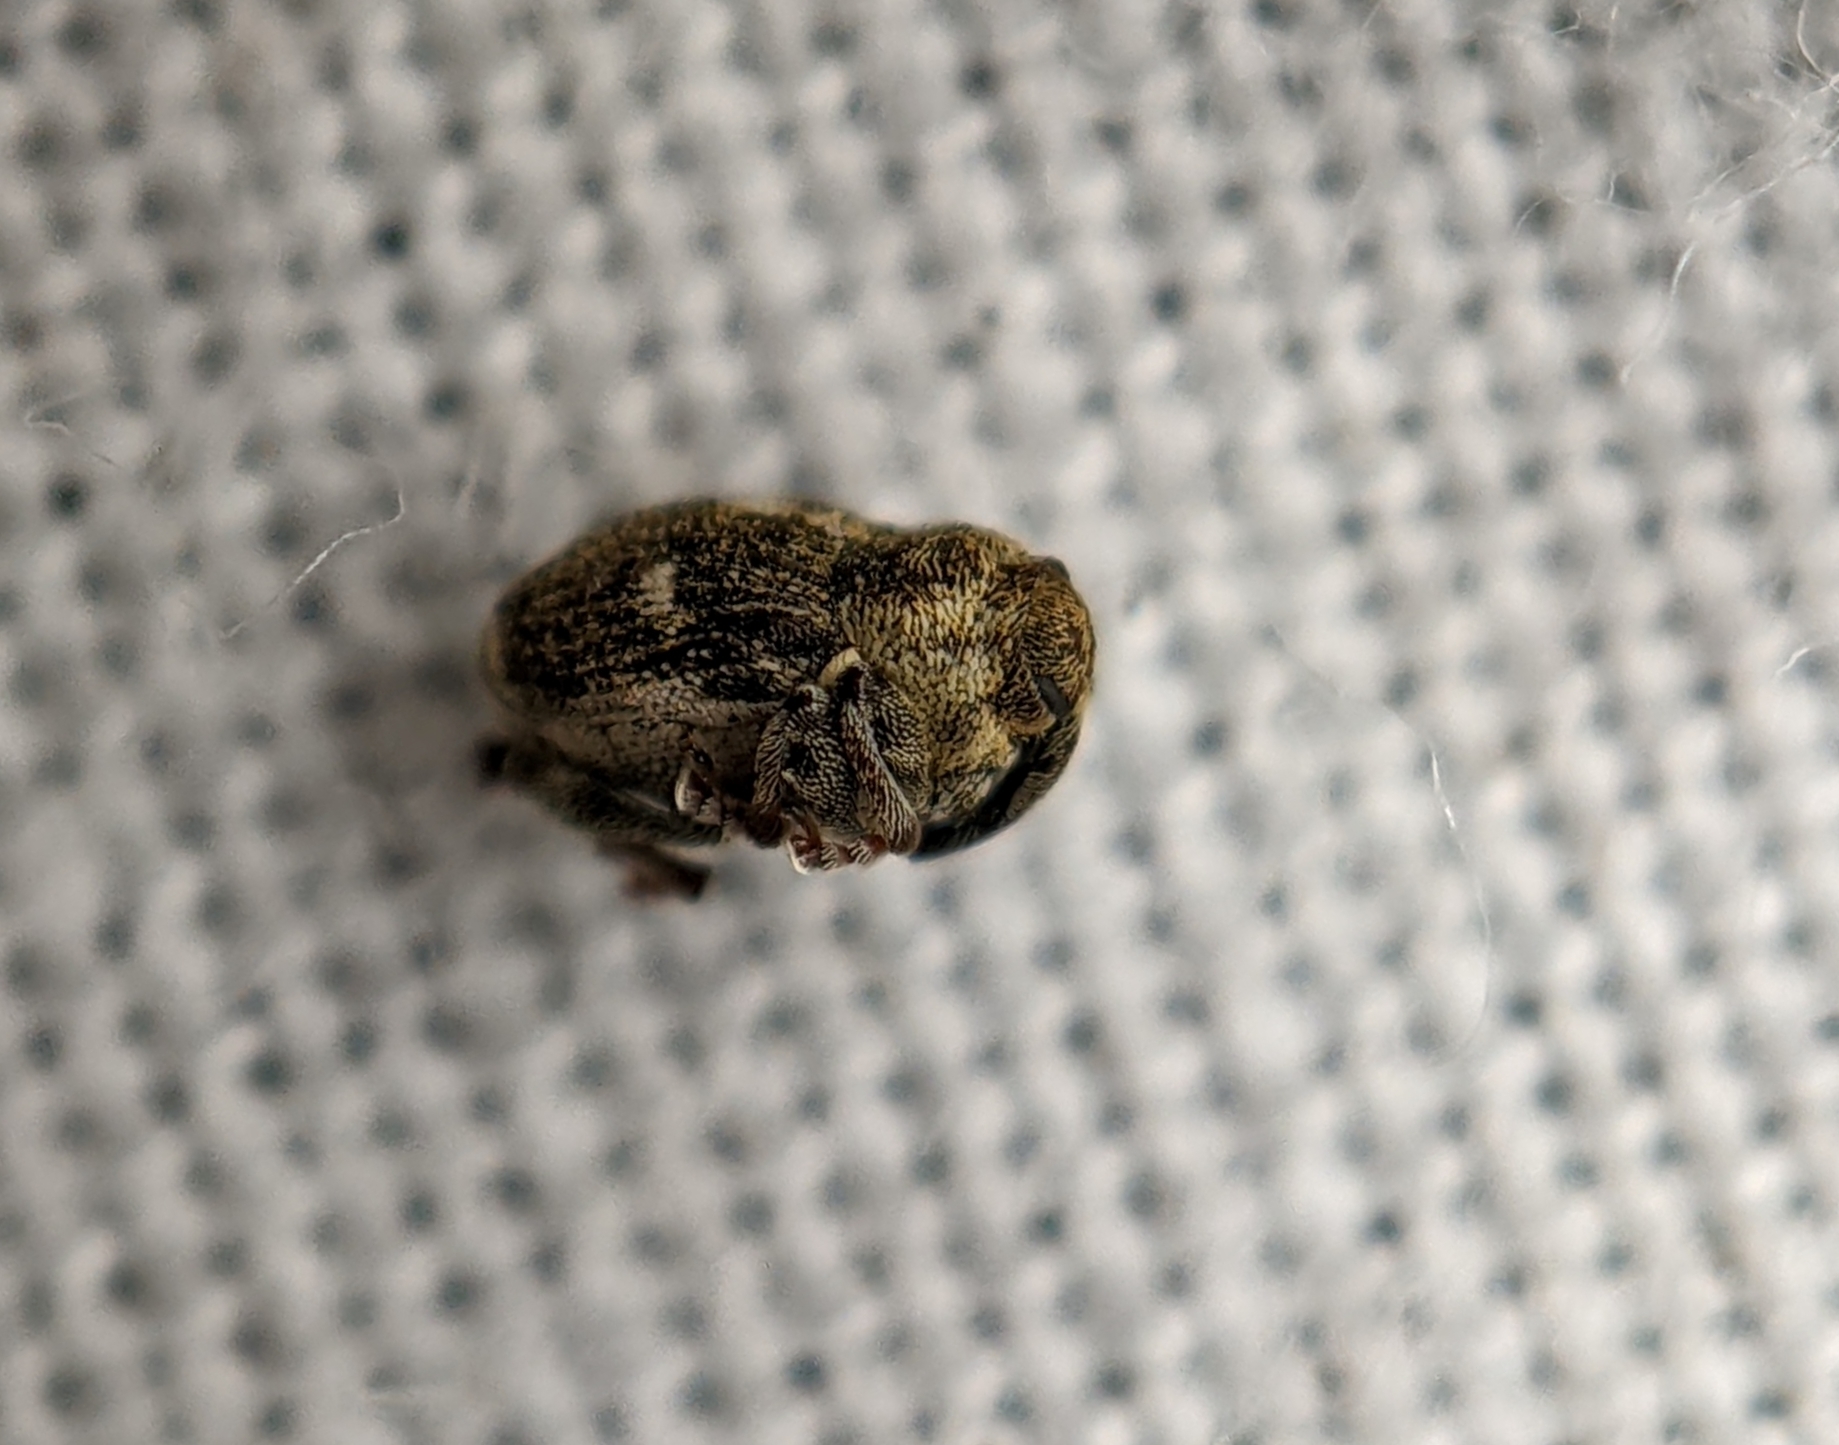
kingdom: Animalia
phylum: Arthropoda
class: Insecta
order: Coleoptera
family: Curculionidae
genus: Nedyus
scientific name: Nedyus quadrimaculatus
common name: Small nettle weevil
